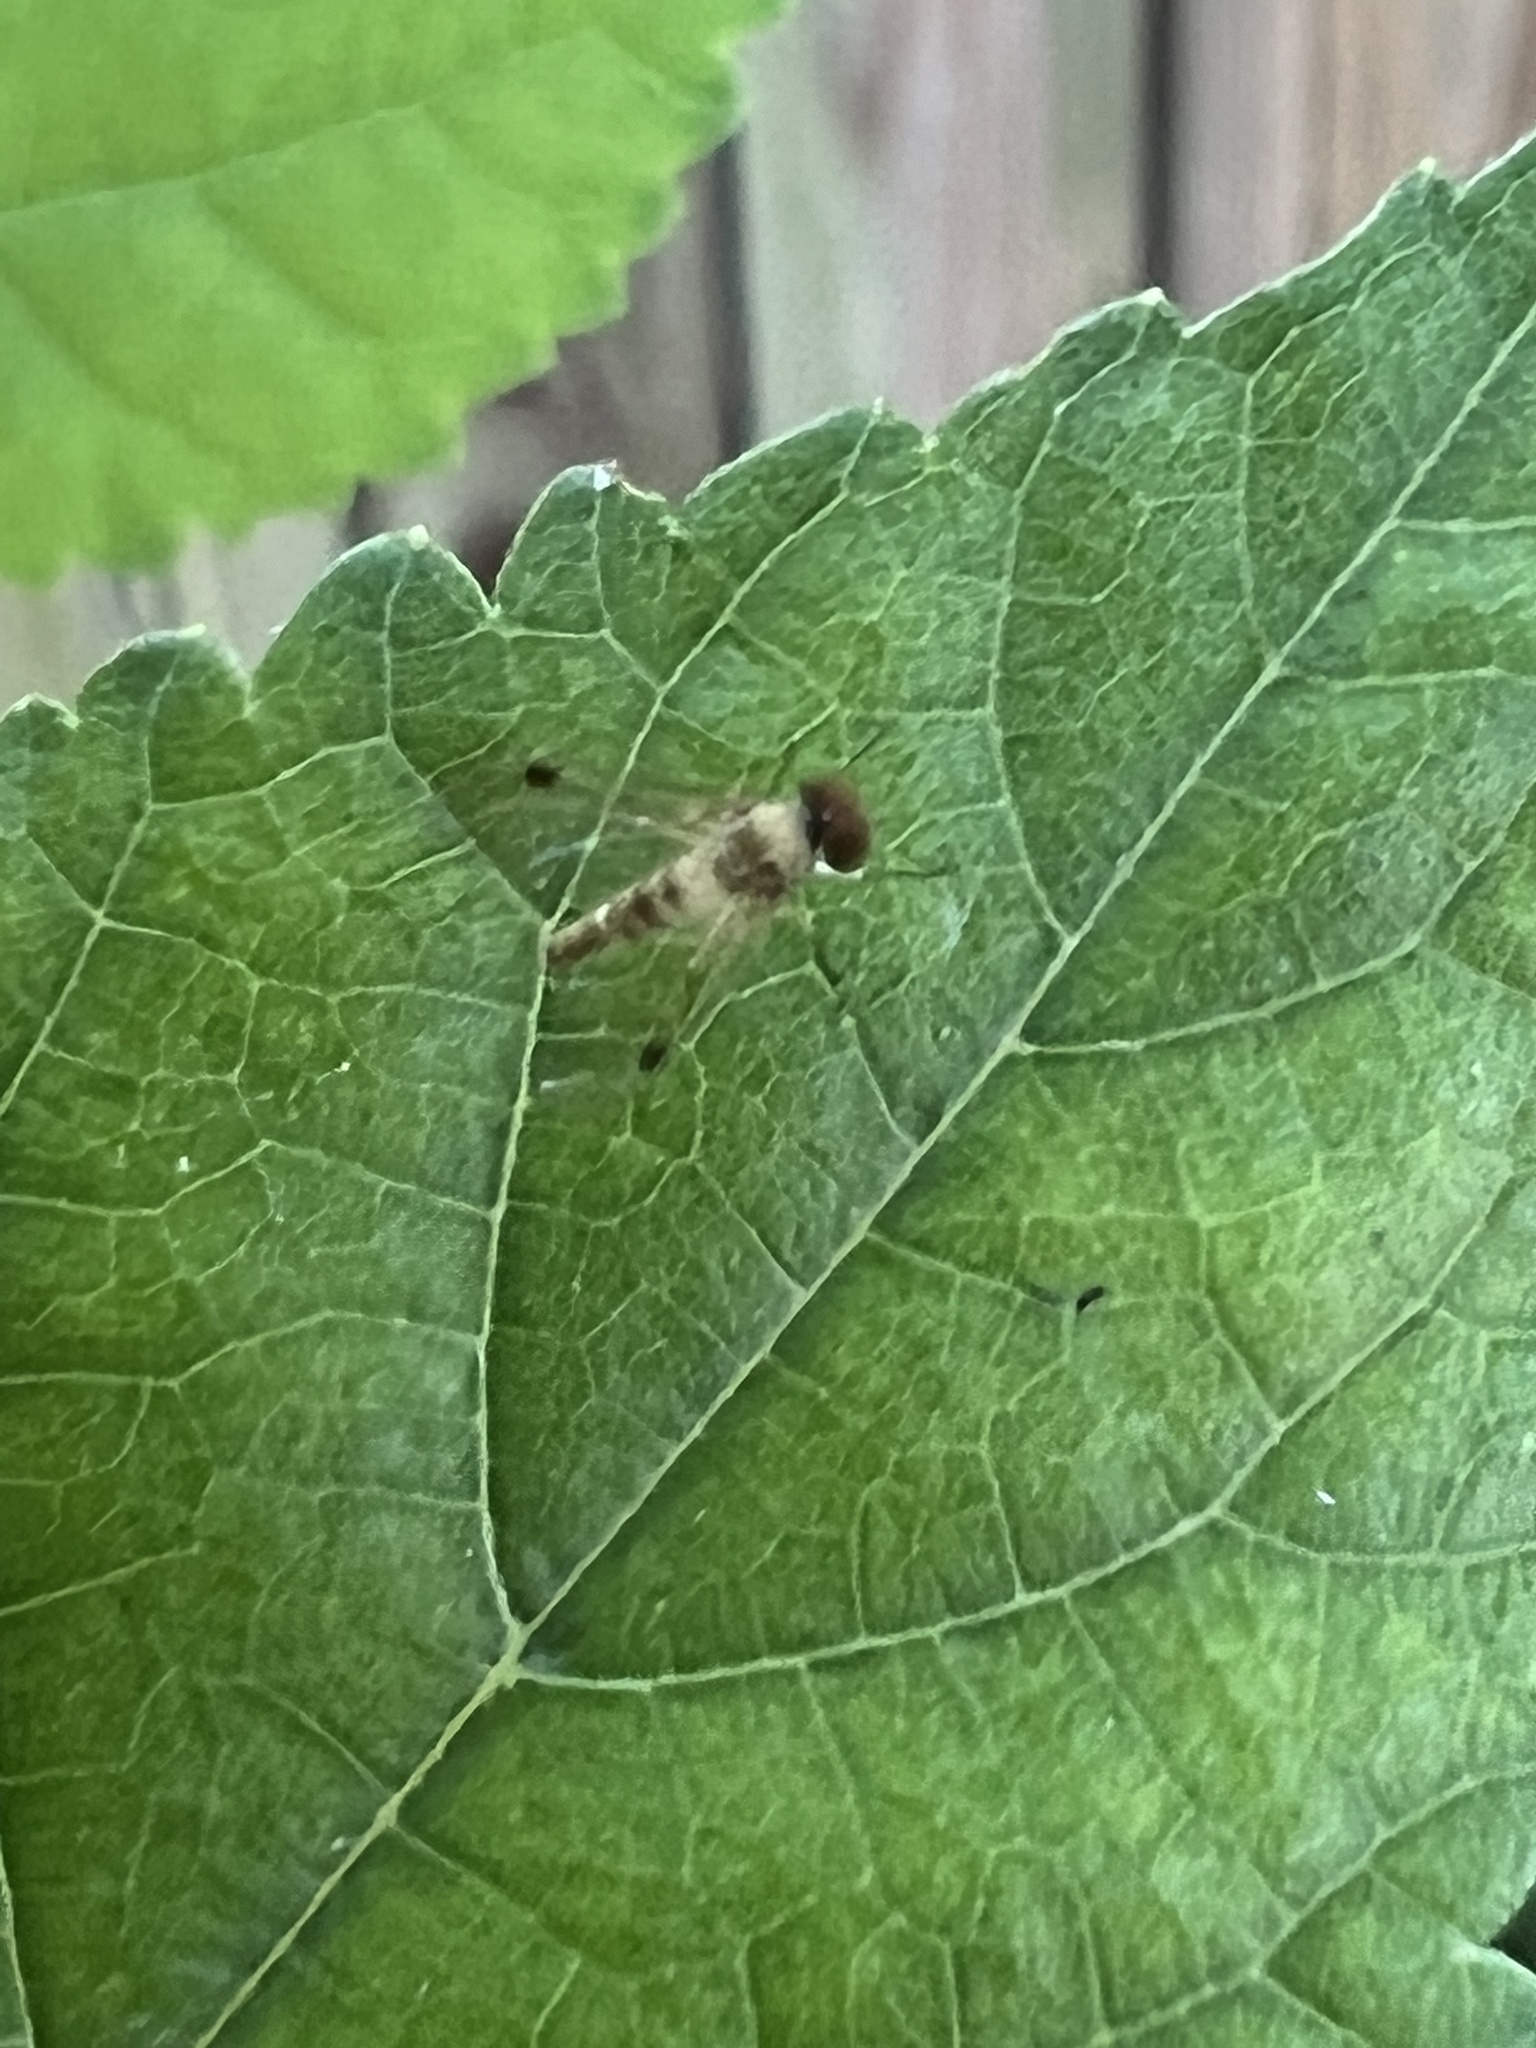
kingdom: Animalia
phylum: Arthropoda
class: Insecta
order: Diptera
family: Rhagionidae
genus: Chrysopilus
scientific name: Chrysopilus modestus
